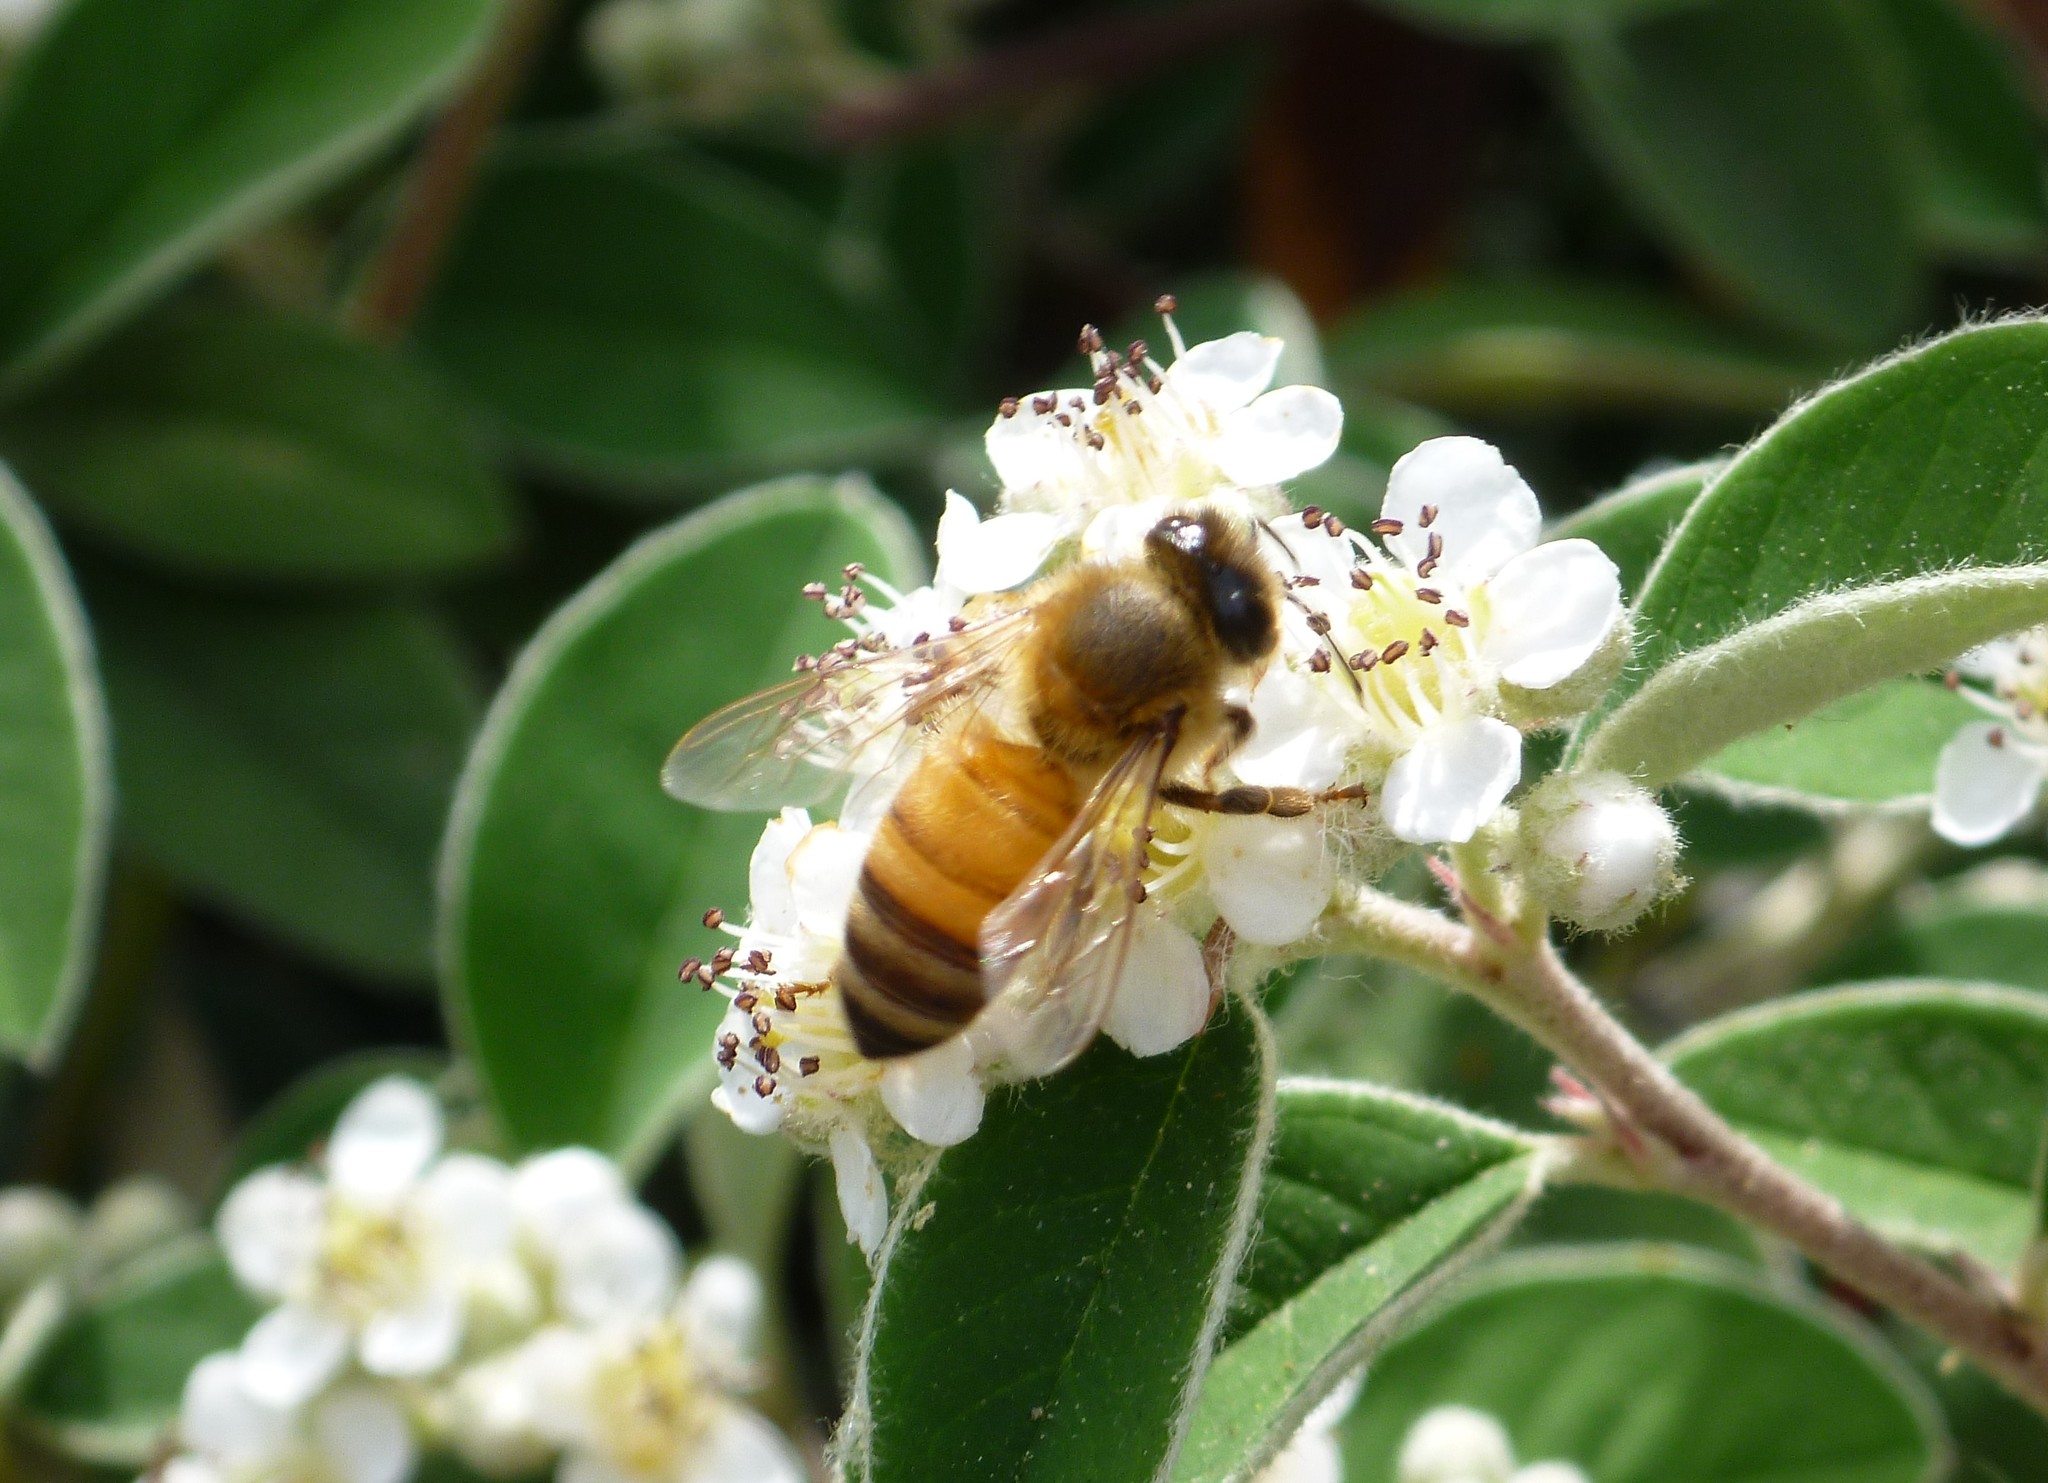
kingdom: Animalia
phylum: Arthropoda
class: Insecta
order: Hymenoptera
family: Apidae
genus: Apis
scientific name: Apis mellifera
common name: Honey bee
